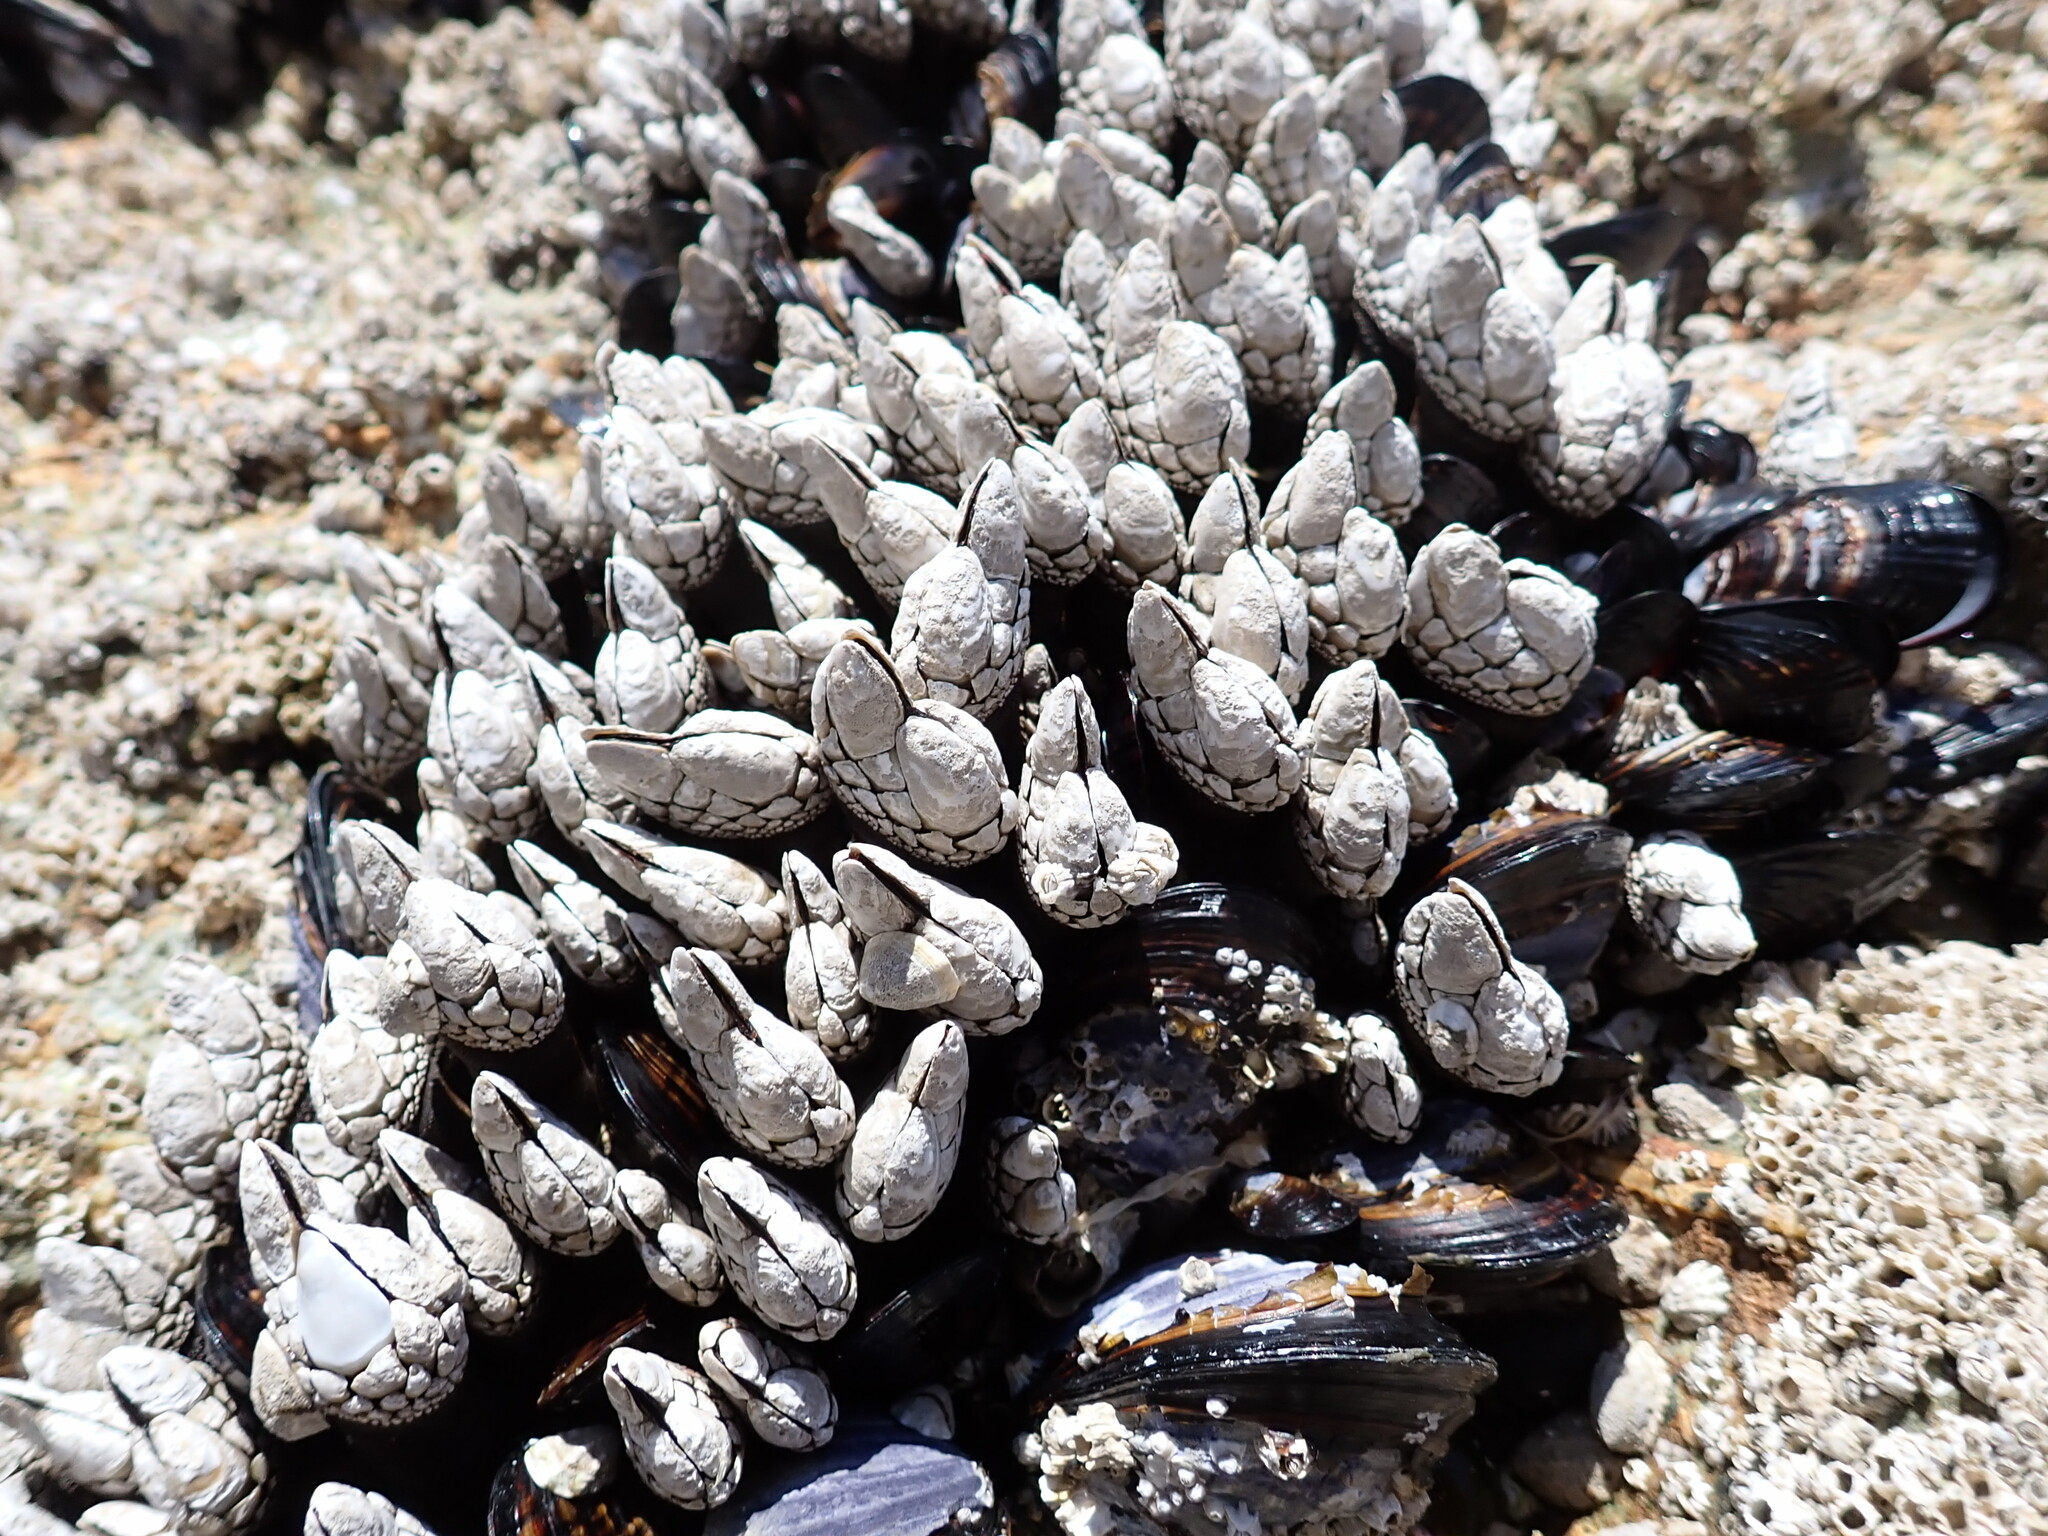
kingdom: Animalia
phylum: Arthropoda
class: Maxillopoda
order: Pedunculata
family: Pollicipedidae
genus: Pollicipes
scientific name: Pollicipes polymerus
